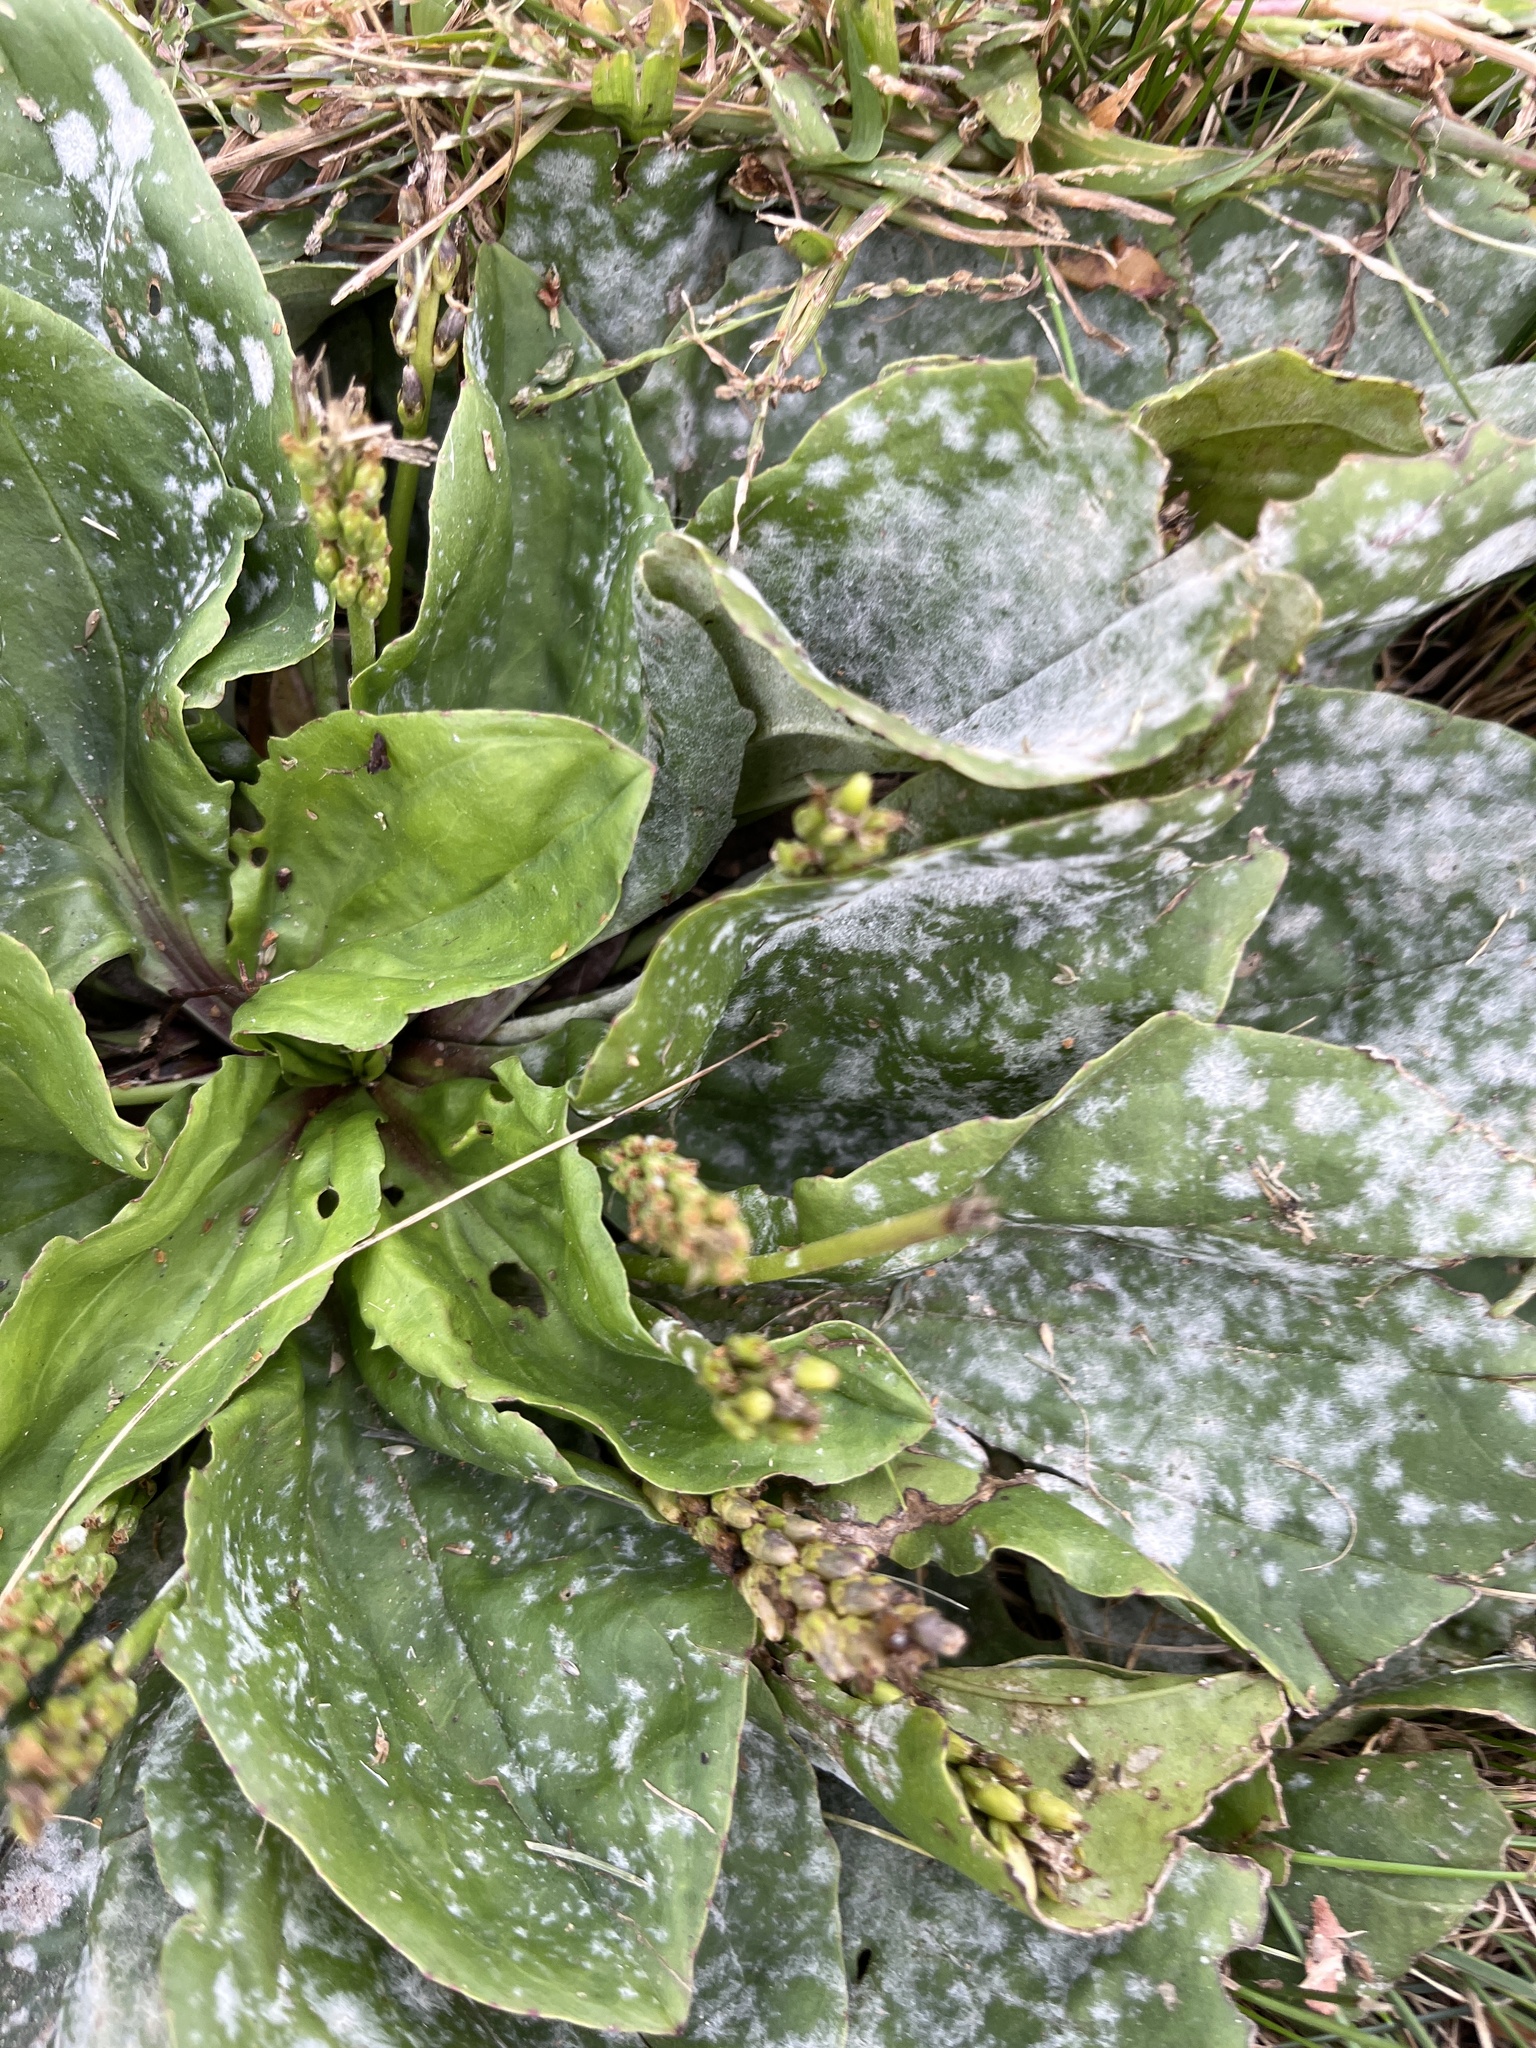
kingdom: Fungi
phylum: Ascomycota
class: Leotiomycetes
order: Helotiales
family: Erysiphaceae
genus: Golovinomyces
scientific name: Golovinomyces sordidus
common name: Plantain mildew
